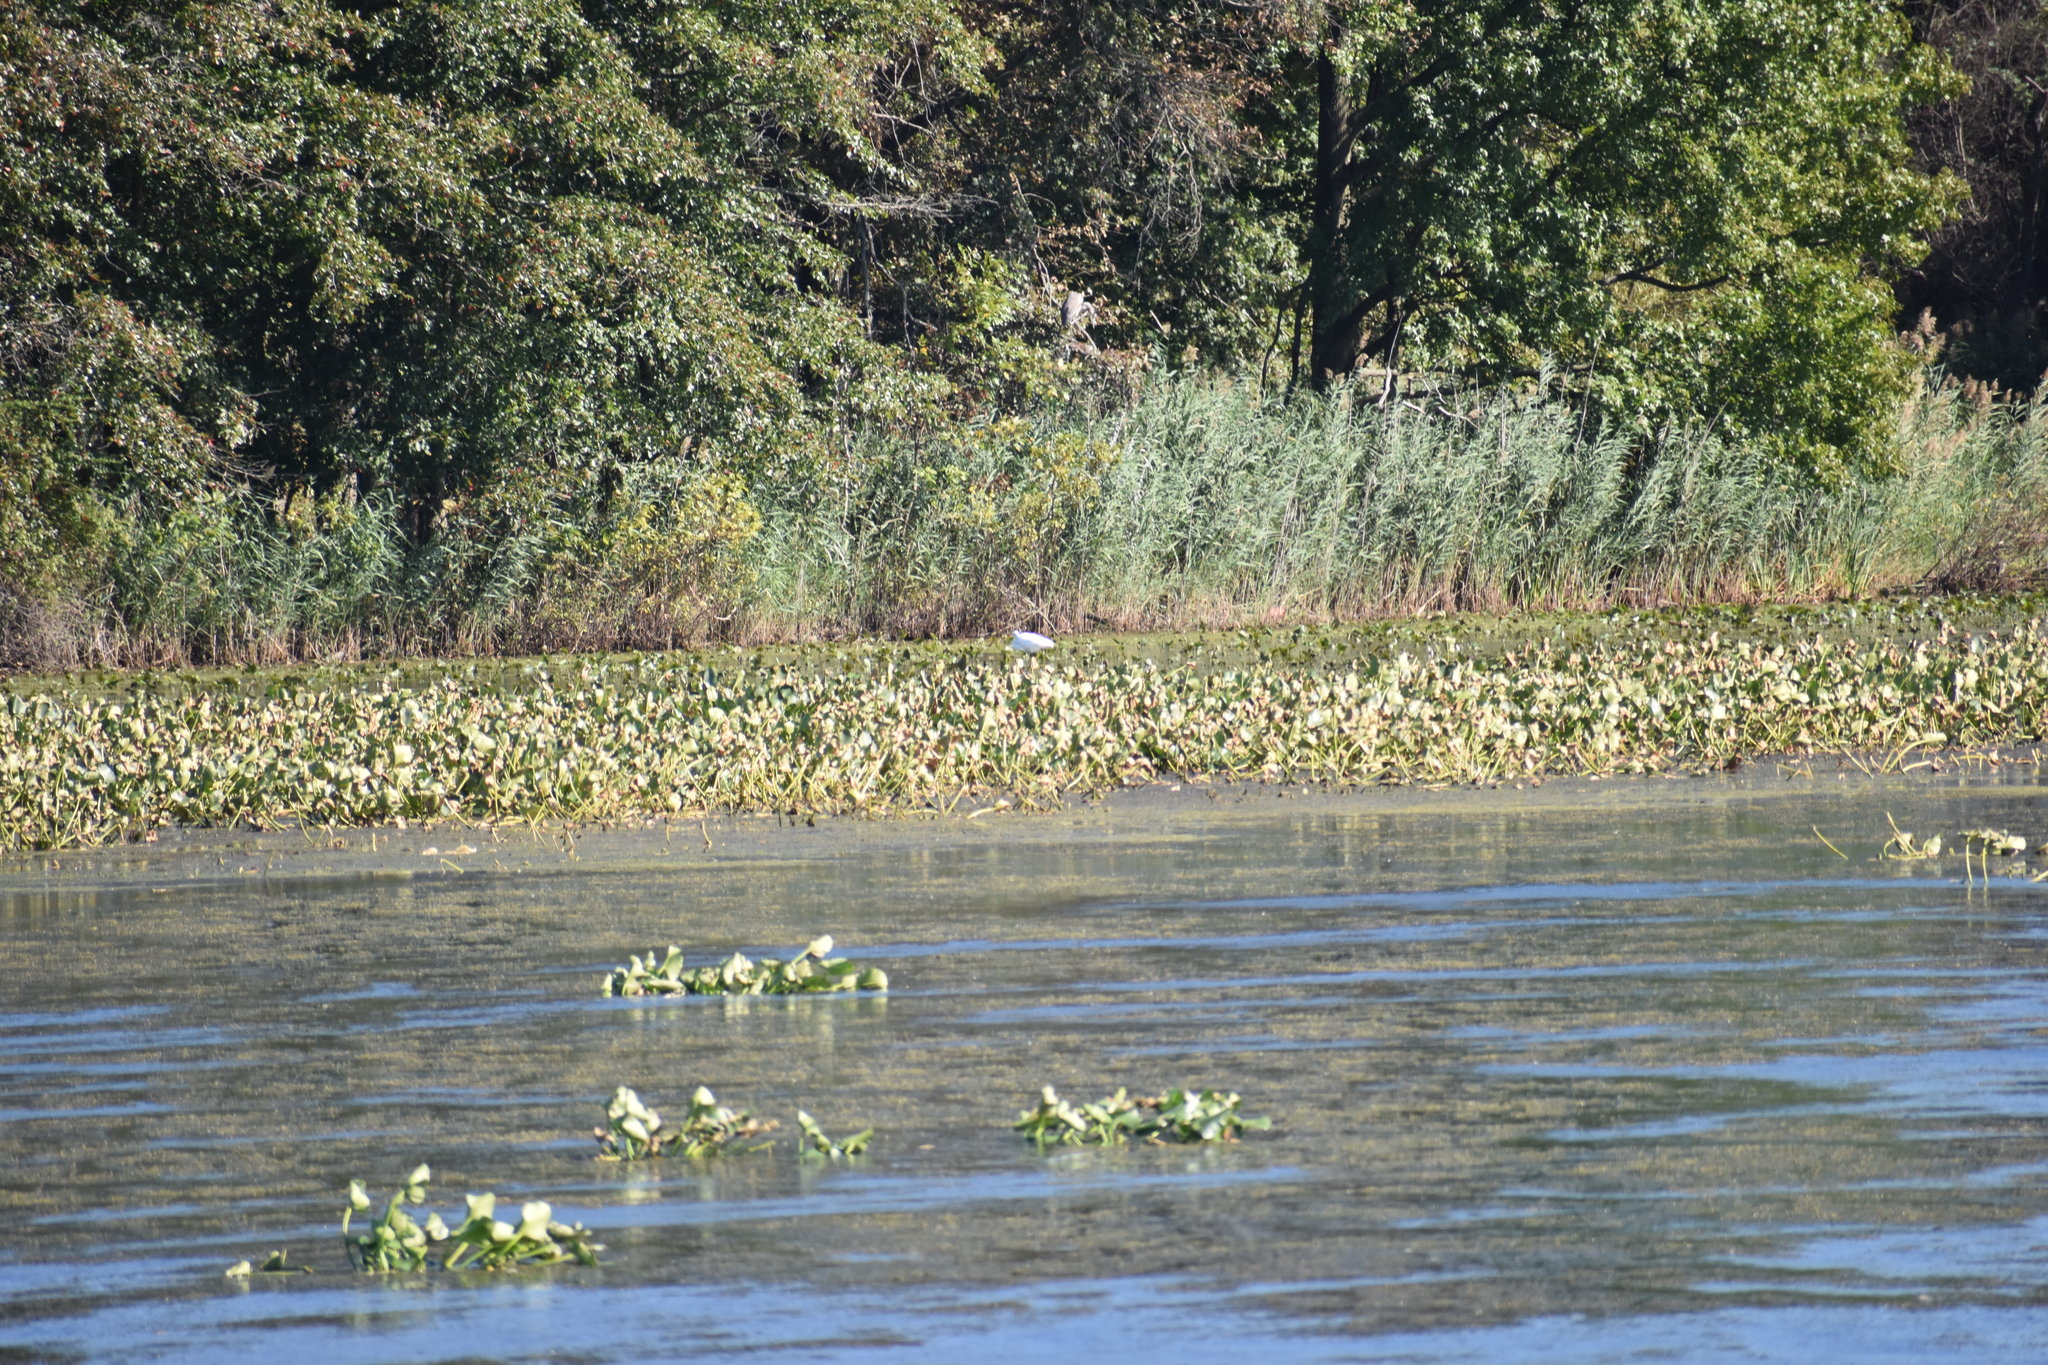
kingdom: Animalia
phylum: Chordata
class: Aves
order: Pelecaniformes
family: Ardeidae
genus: Ardea
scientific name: Ardea alba
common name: Great egret
